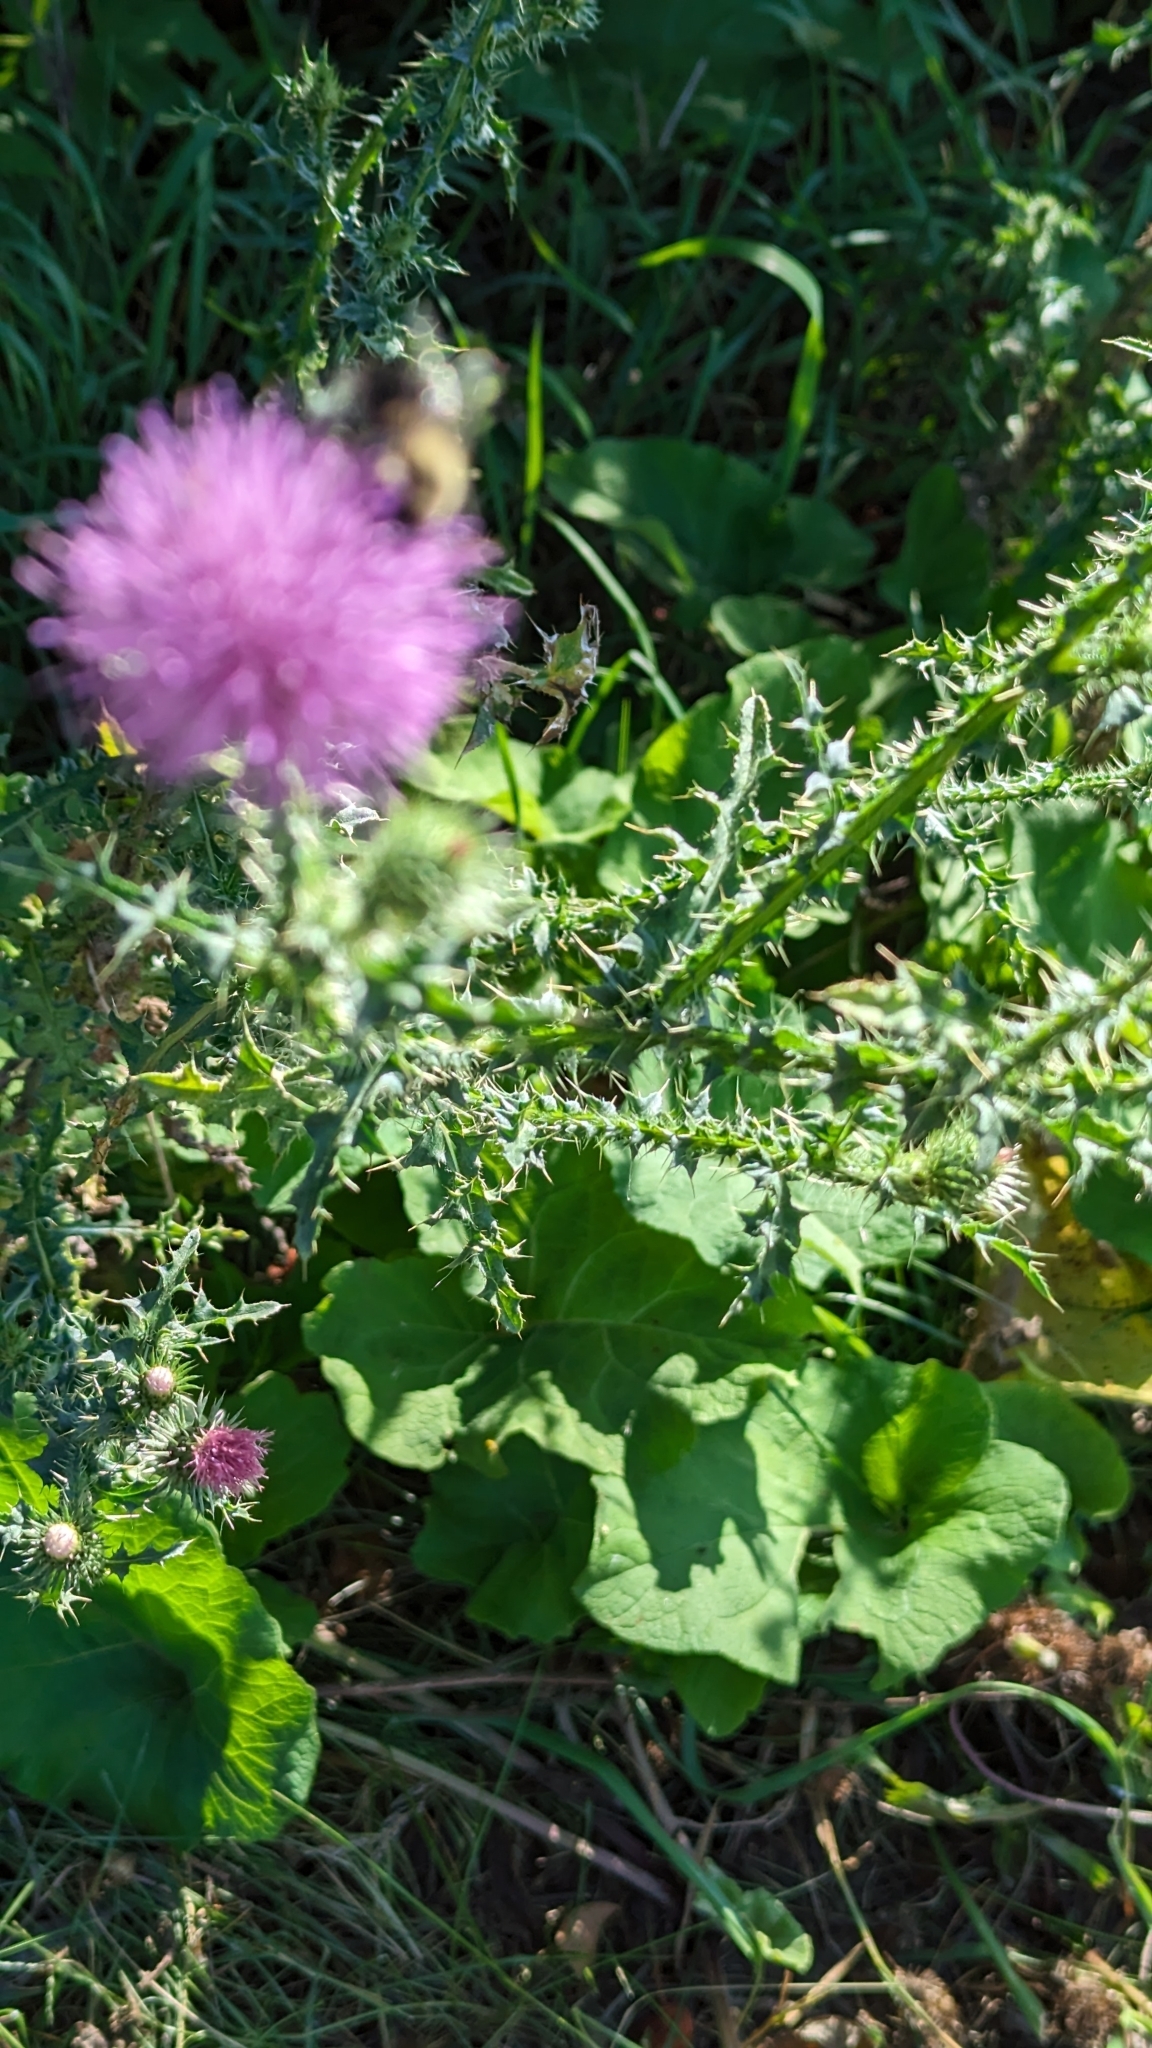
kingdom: Plantae
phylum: Tracheophyta
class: Magnoliopsida
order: Asterales
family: Asteraceae
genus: Carduus
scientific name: Carduus acanthoides
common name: Plumeless thistle
